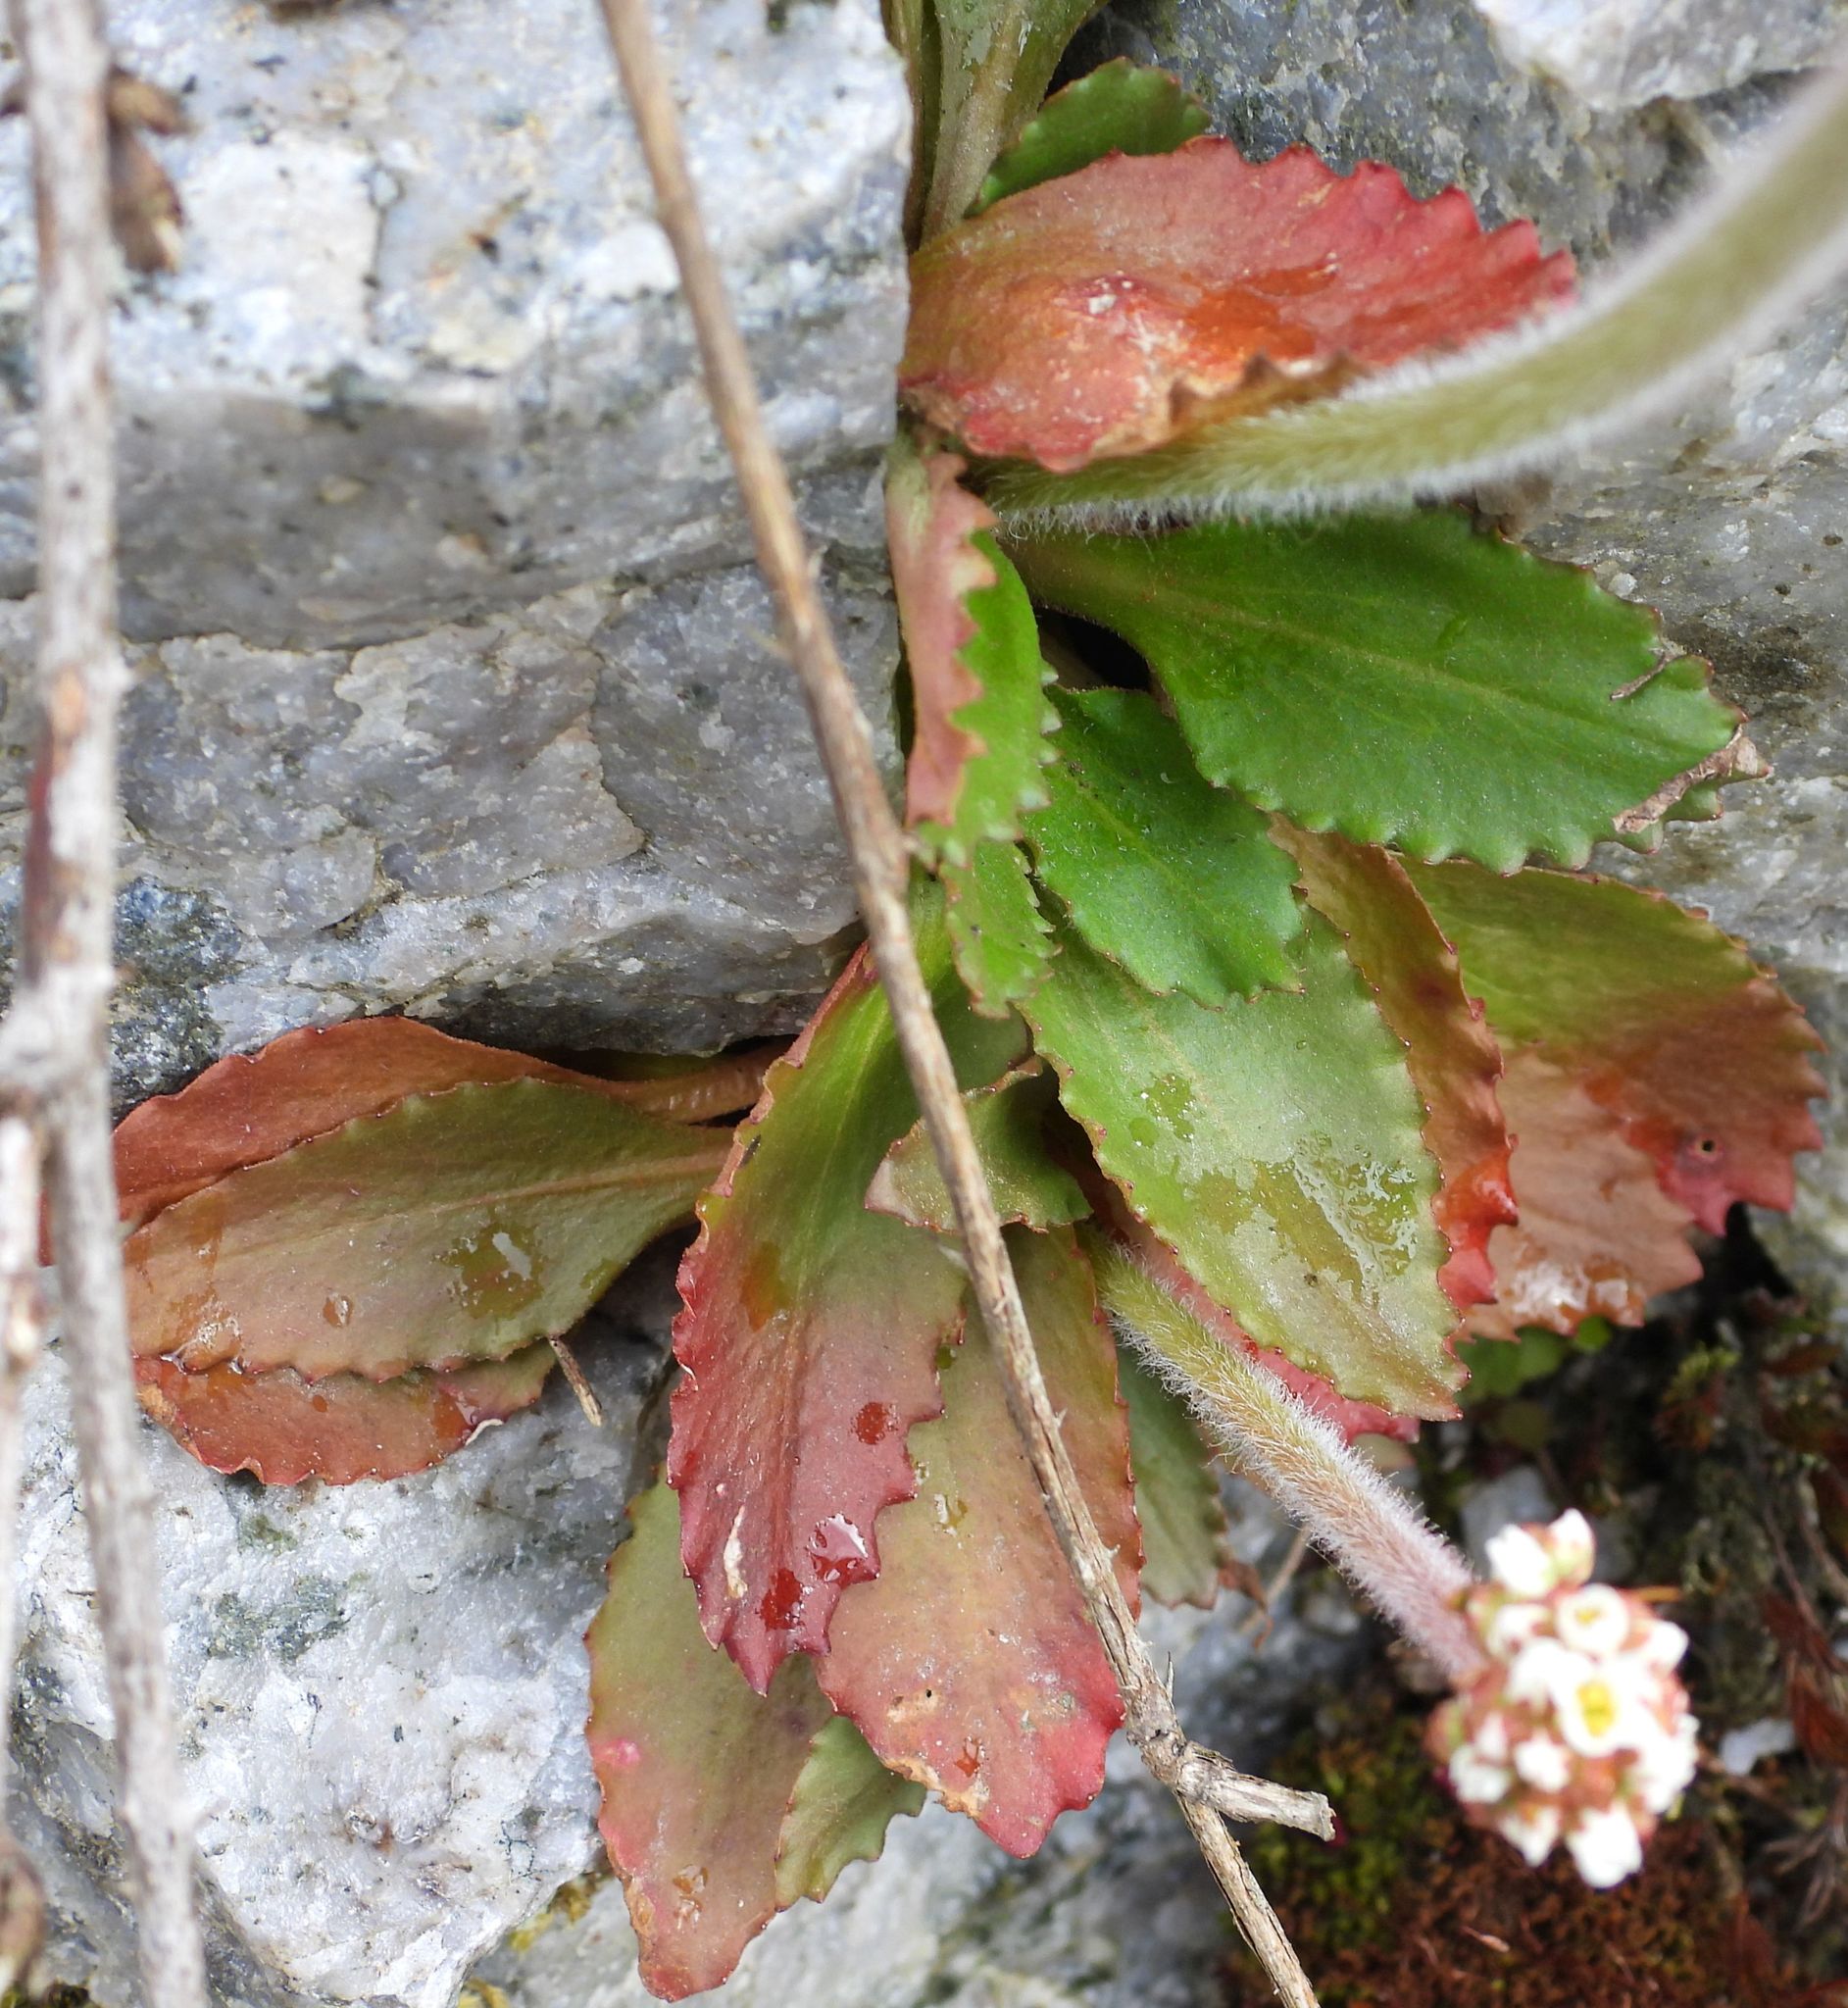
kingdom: Plantae
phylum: Tracheophyta
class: Magnoliopsida
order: Saxifragales
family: Saxifragaceae
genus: Micranthes
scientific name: Micranthes virginiensis
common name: Early saxifrage
